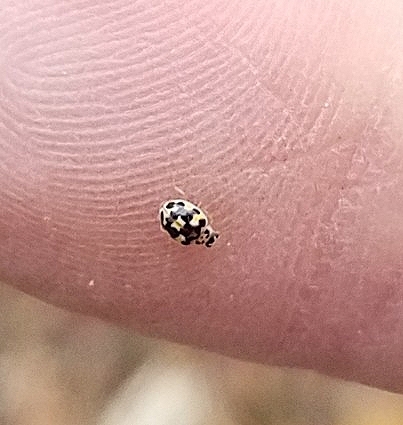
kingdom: Animalia
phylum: Arthropoda
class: Insecta
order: Coleoptera
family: Coccinellidae
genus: Psyllobora
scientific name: Psyllobora vigintimaculata
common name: Ladybird beetle
